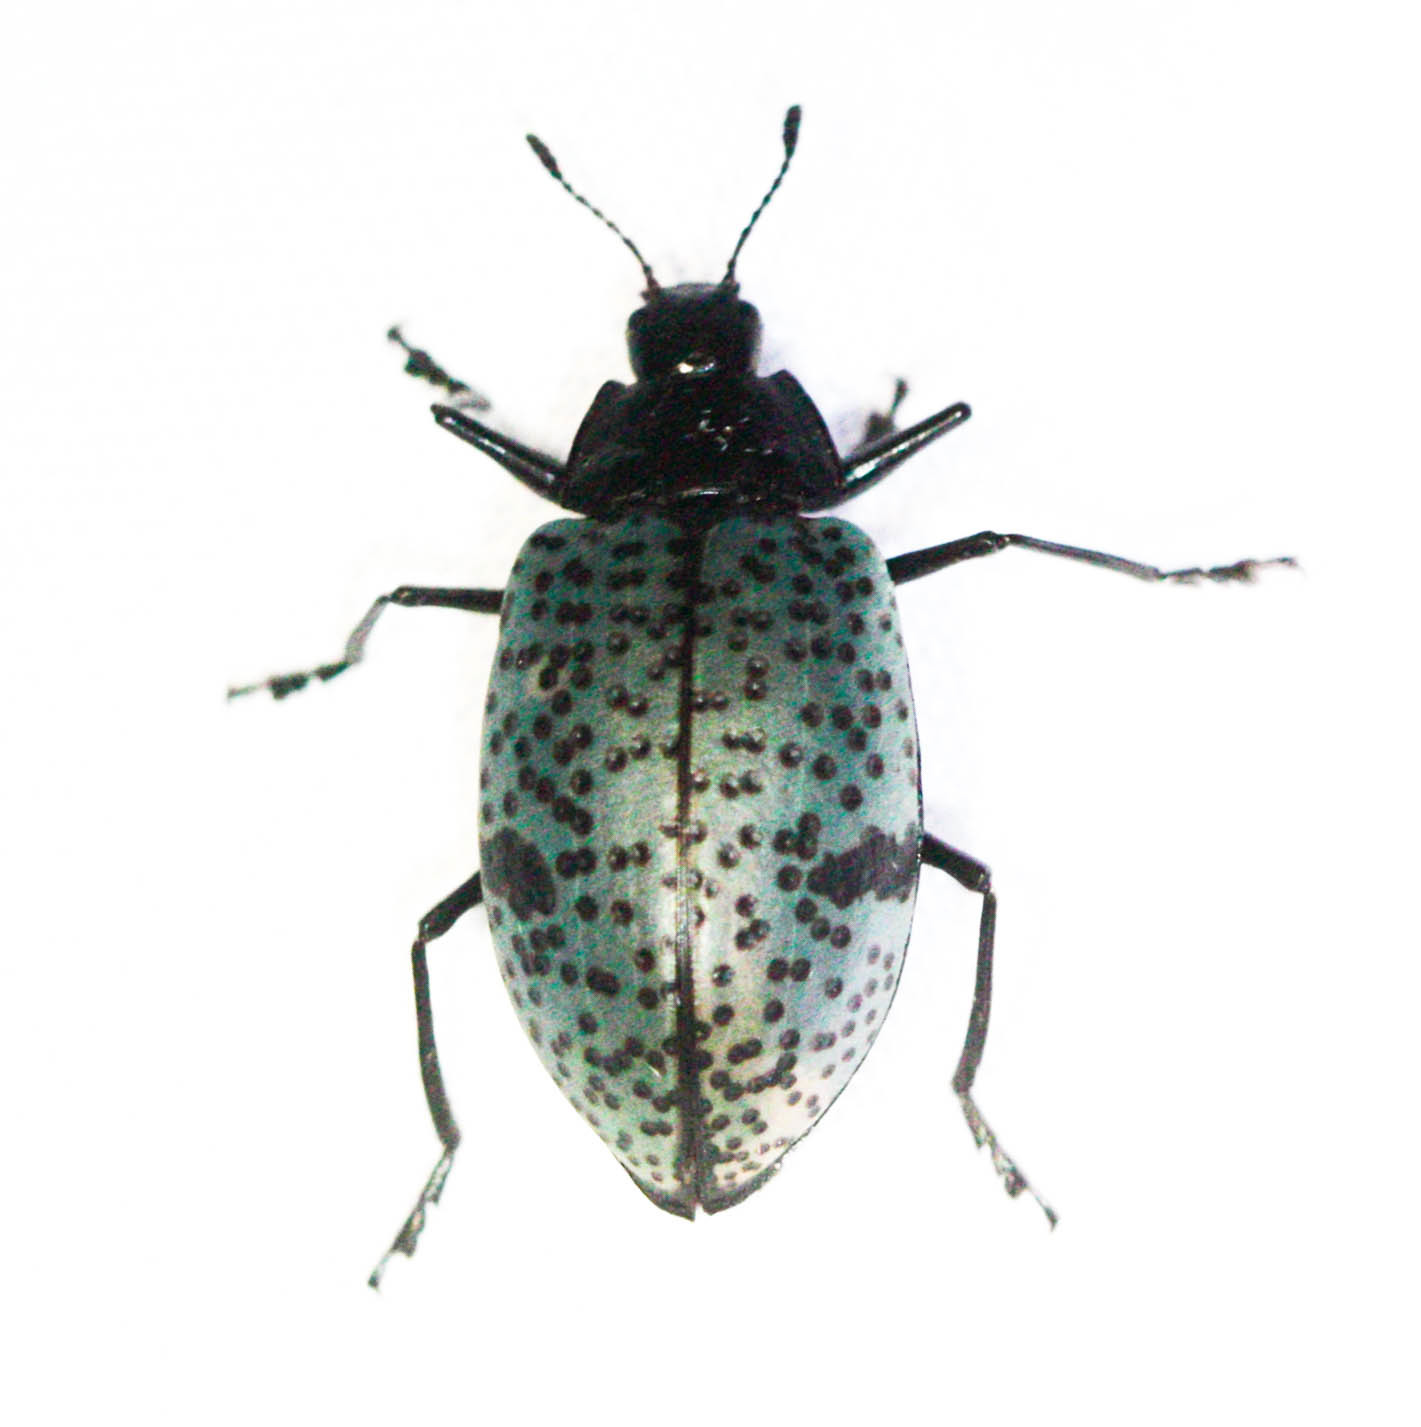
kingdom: Animalia
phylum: Arthropoda
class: Insecta
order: Coleoptera
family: Erotylidae
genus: Gibbifer
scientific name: Gibbifer californicus
